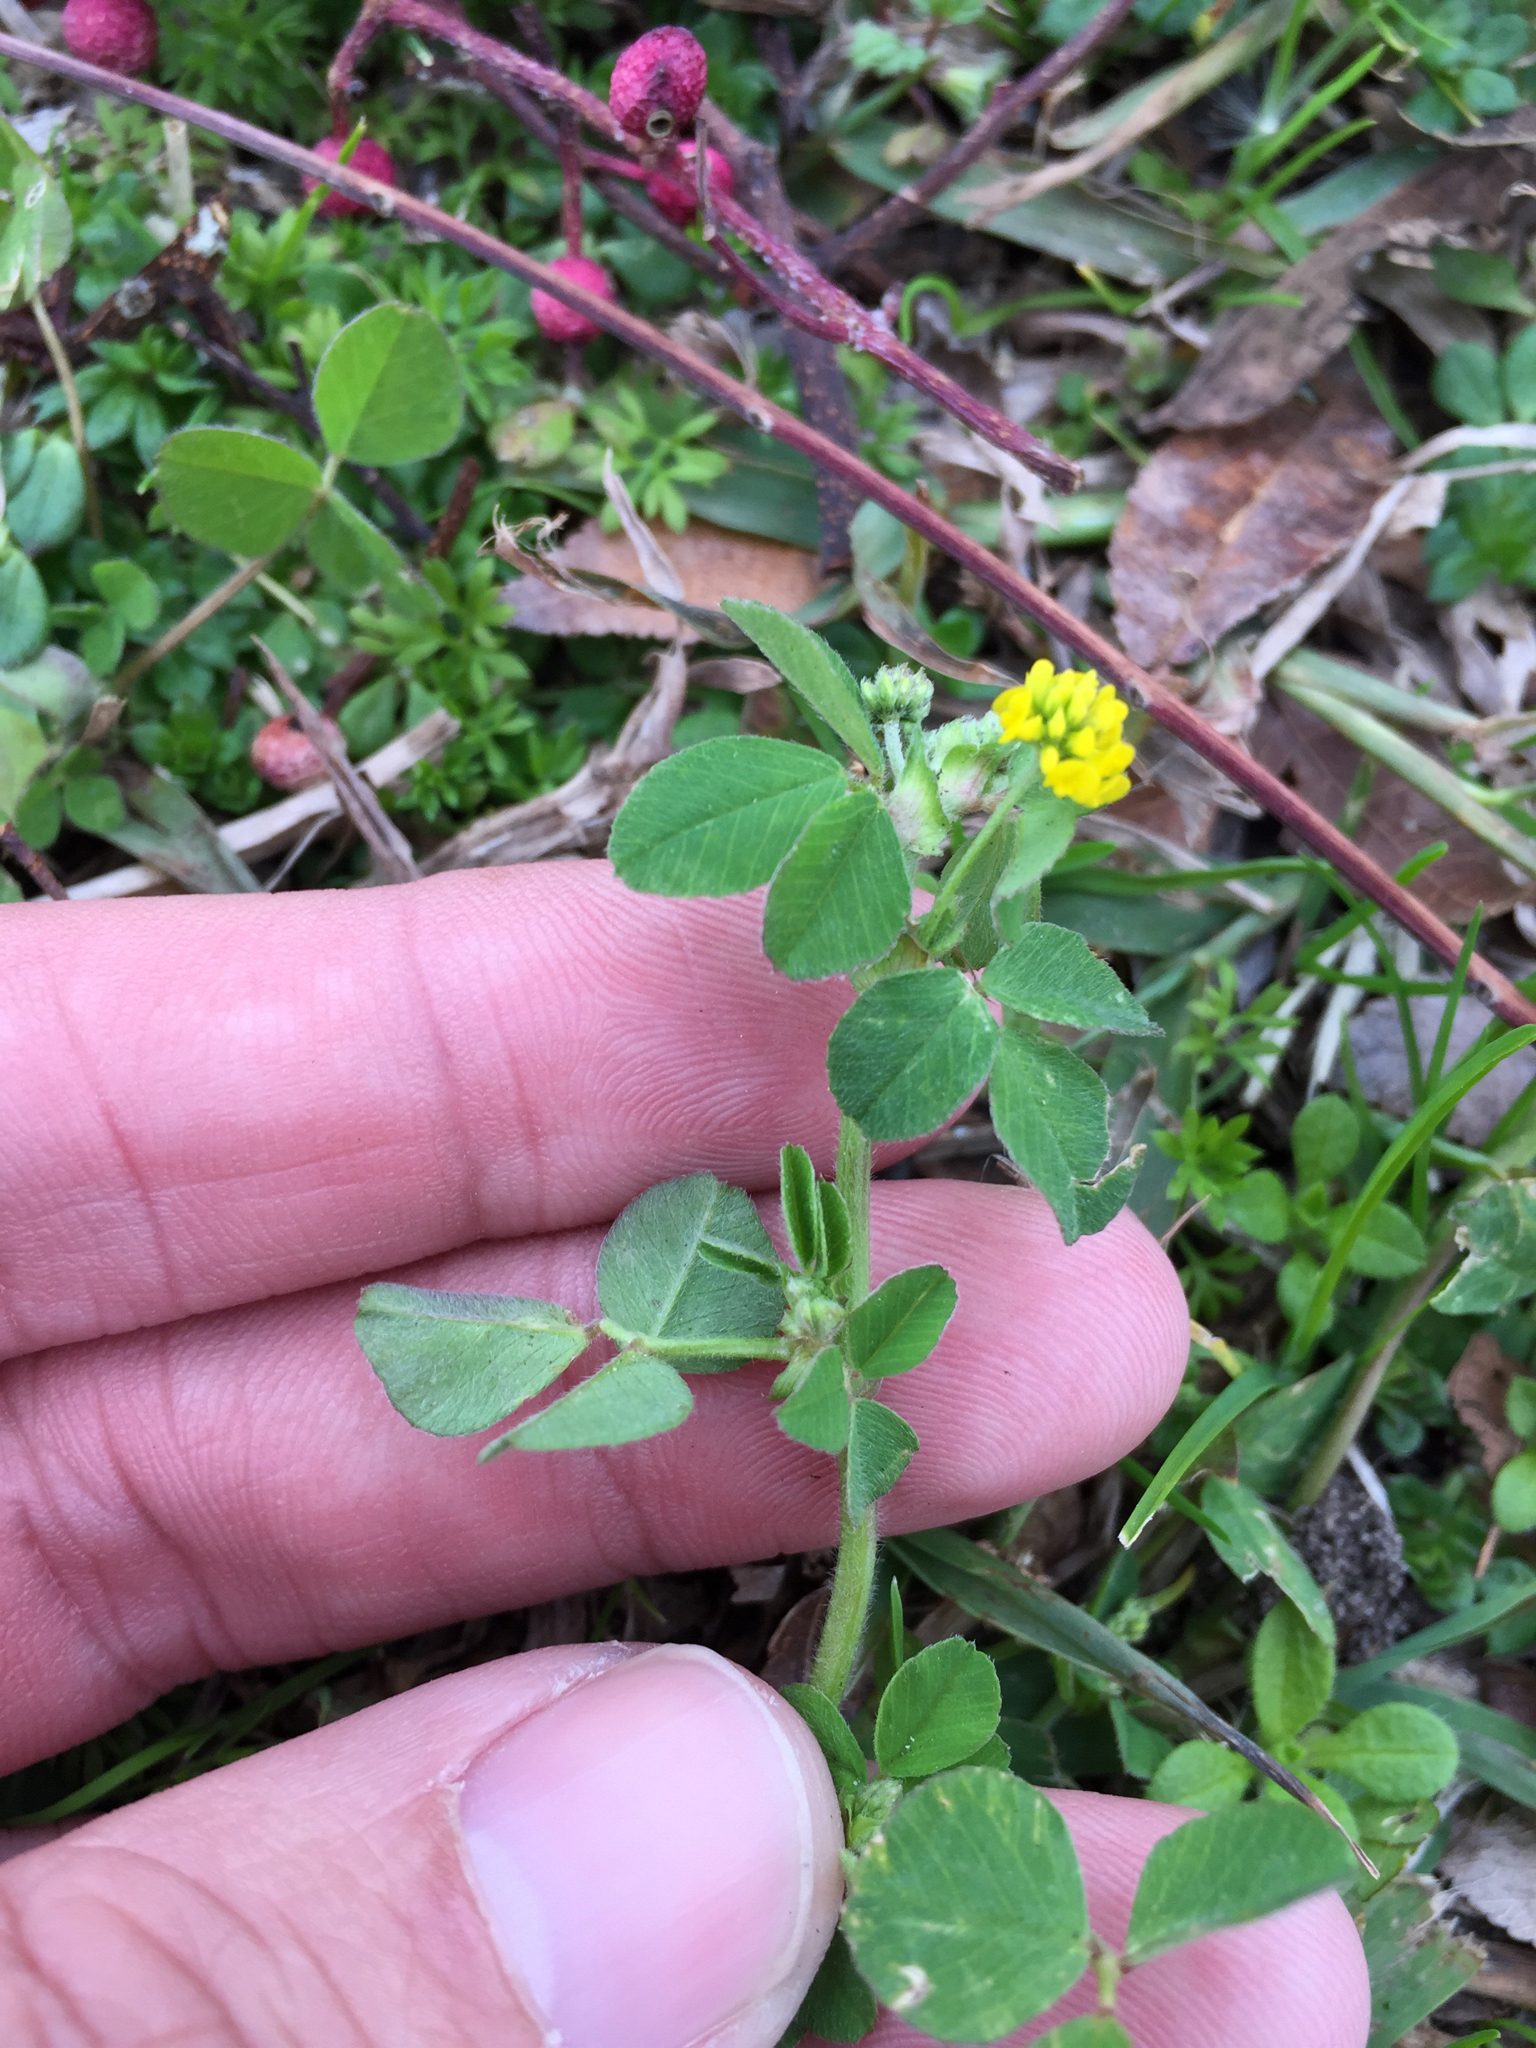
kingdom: Plantae
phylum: Tracheophyta
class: Magnoliopsida
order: Fabales
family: Fabaceae
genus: Medicago
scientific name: Medicago lupulina
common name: Black medick
